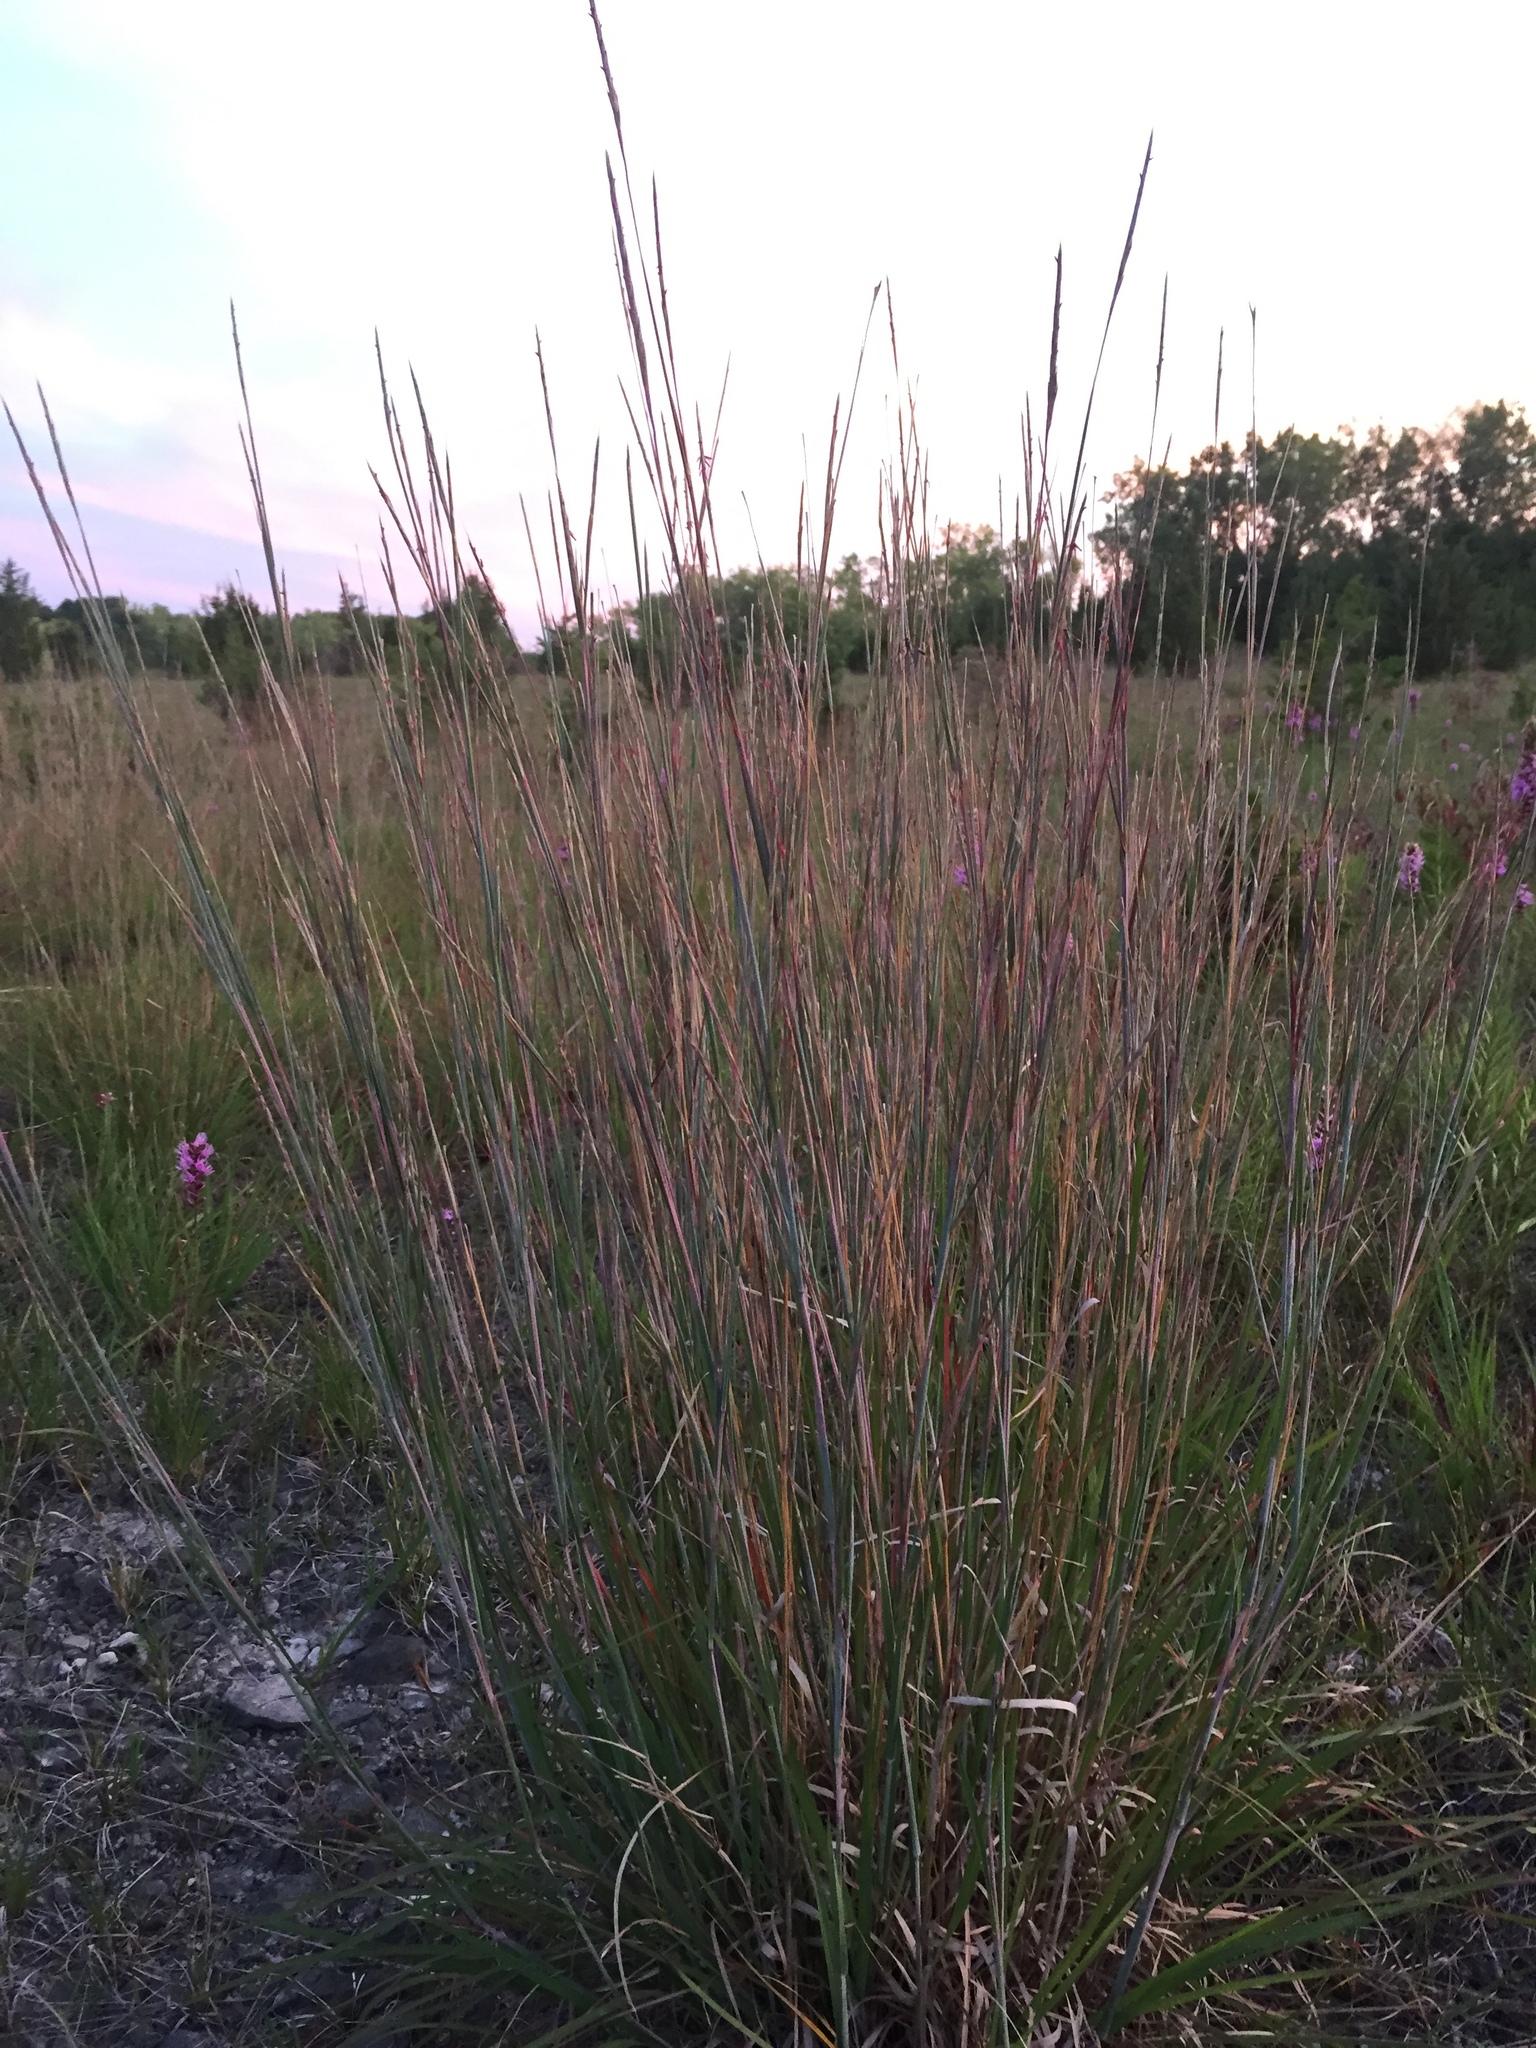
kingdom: Plantae
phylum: Tracheophyta
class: Liliopsida
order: Poales
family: Poaceae
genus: Schizachyrium
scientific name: Schizachyrium scoparium
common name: Little bluestem
